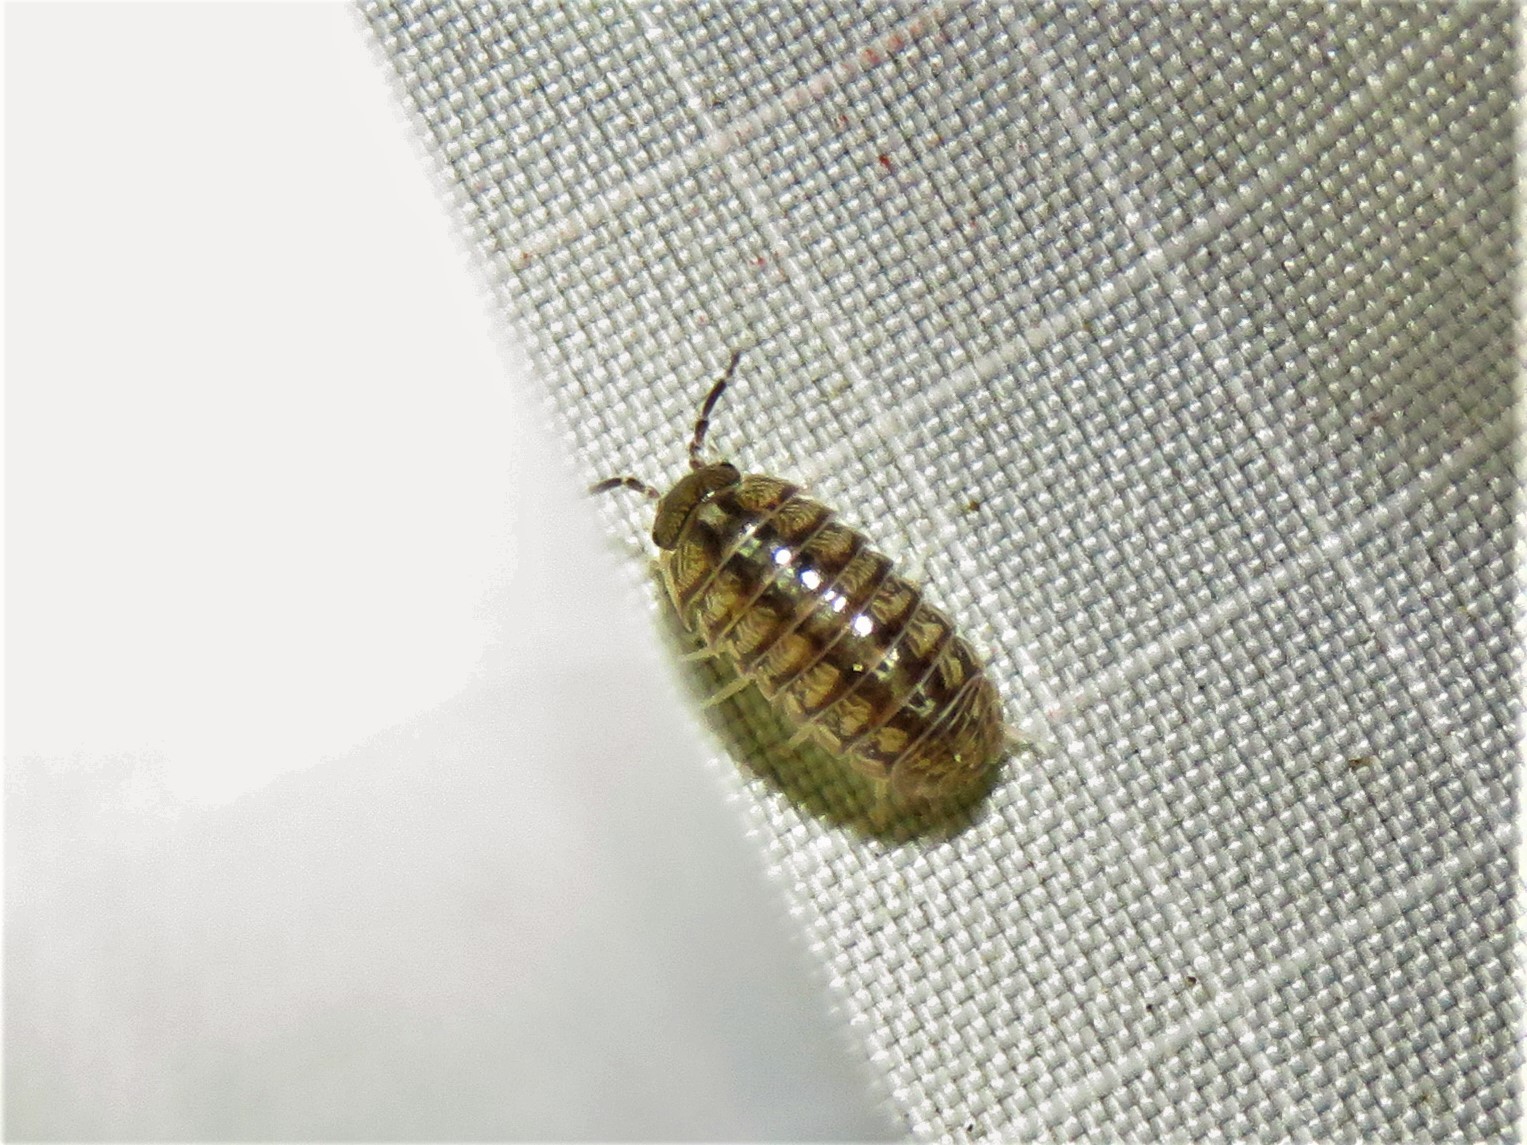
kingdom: Animalia
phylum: Arthropoda
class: Malacostraca
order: Isopoda
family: Armadillidiidae
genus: Armadillidium
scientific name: Armadillidium vulgare
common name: Common pill woodlouse
